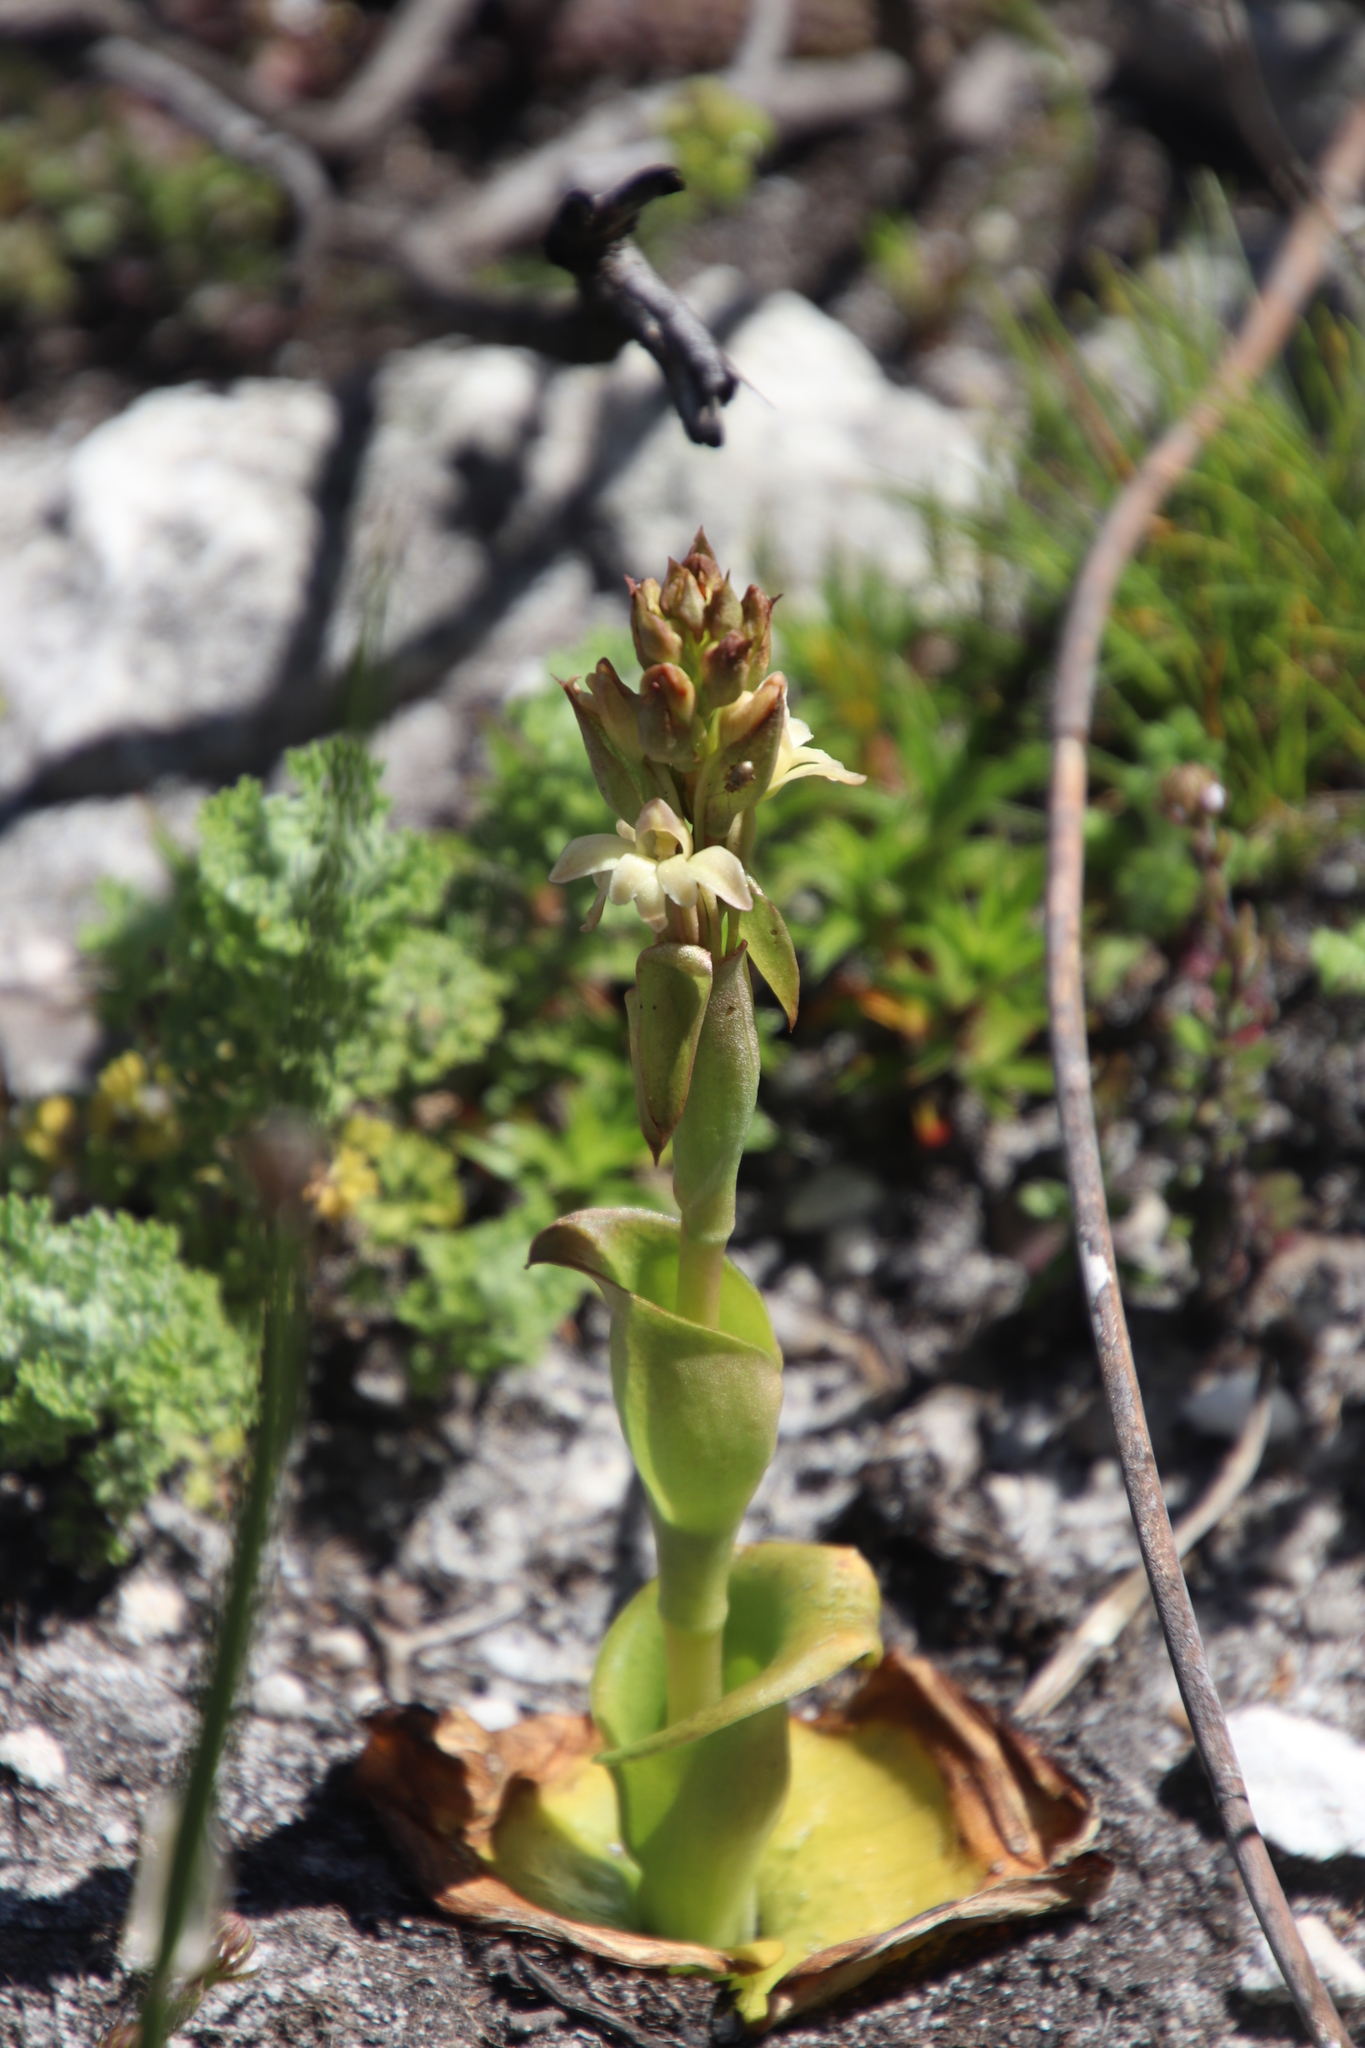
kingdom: Plantae
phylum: Tracheophyta
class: Liliopsida
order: Asparagales
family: Orchidaceae
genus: Satyrium
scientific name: Satyrium situsanguinum
